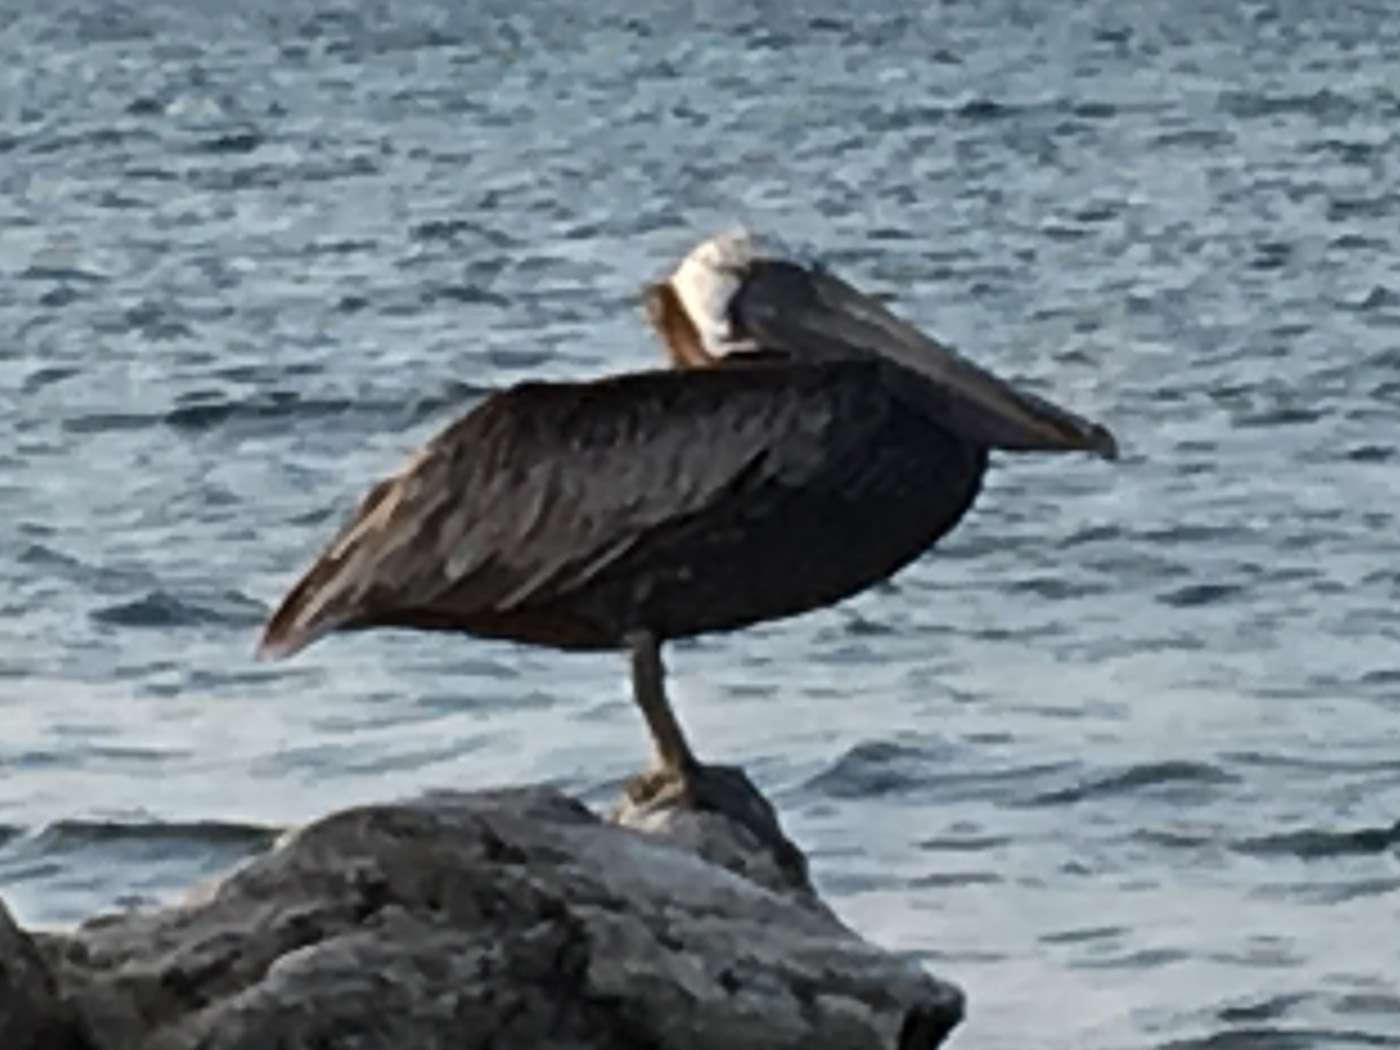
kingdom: Animalia
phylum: Chordata
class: Aves
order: Pelecaniformes
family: Pelecanidae
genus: Pelecanus
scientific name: Pelecanus occidentalis
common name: Brown pelican
